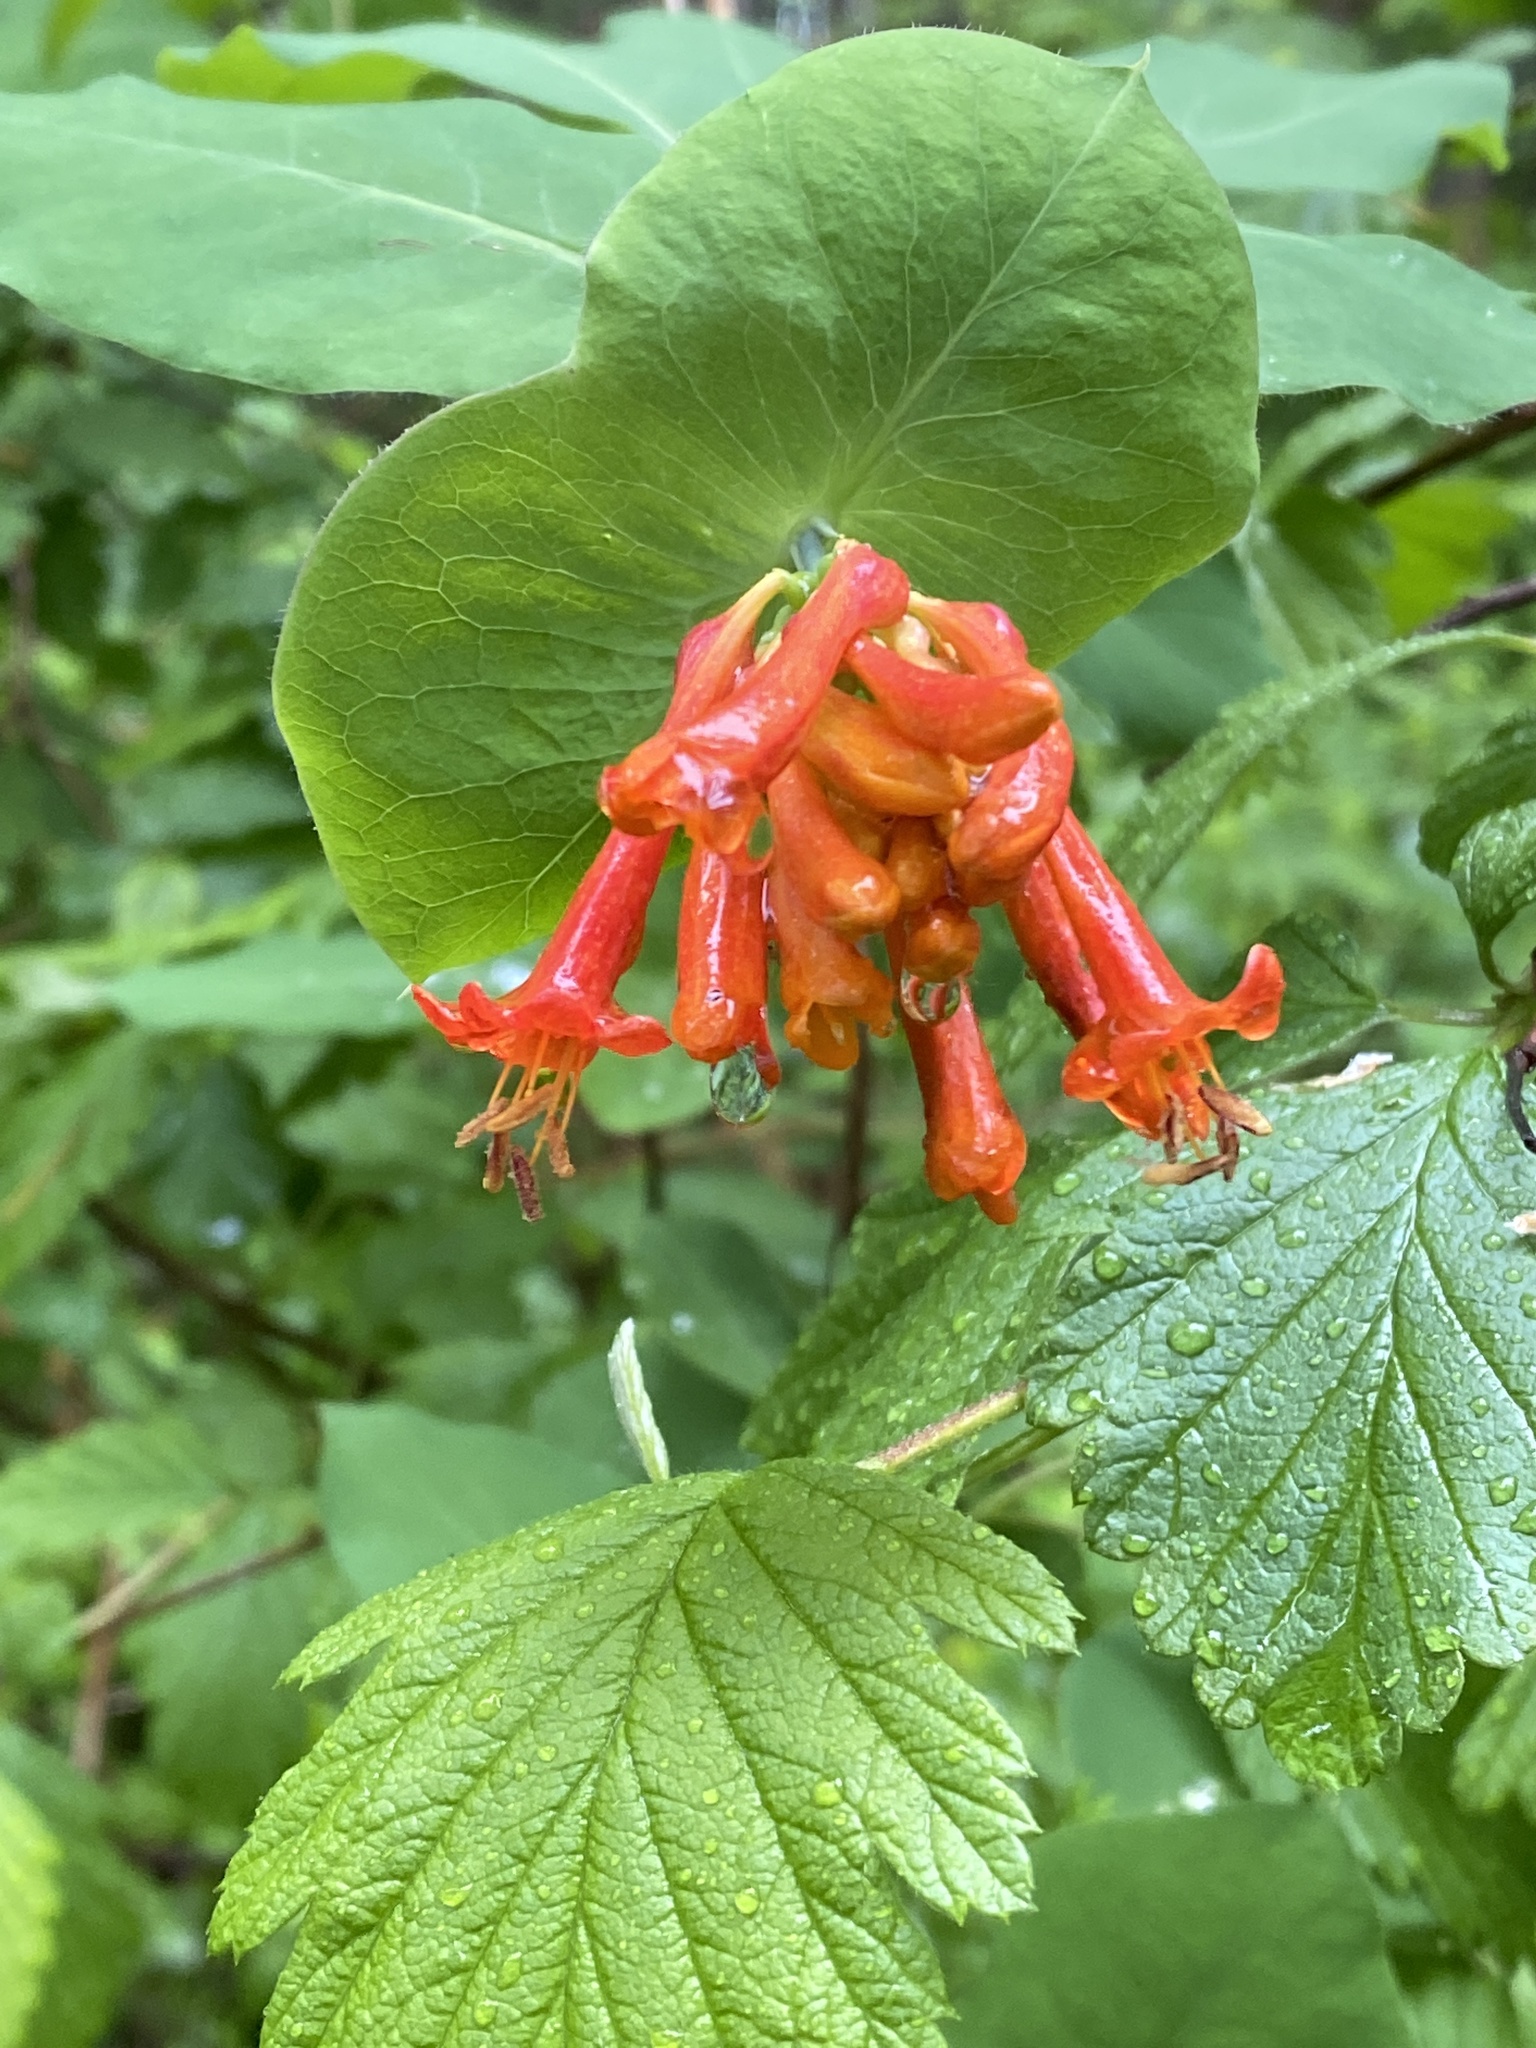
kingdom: Plantae
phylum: Tracheophyta
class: Magnoliopsida
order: Dipsacales
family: Caprifoliaceae
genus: Lonicera
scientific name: Lonicera ciliosa
